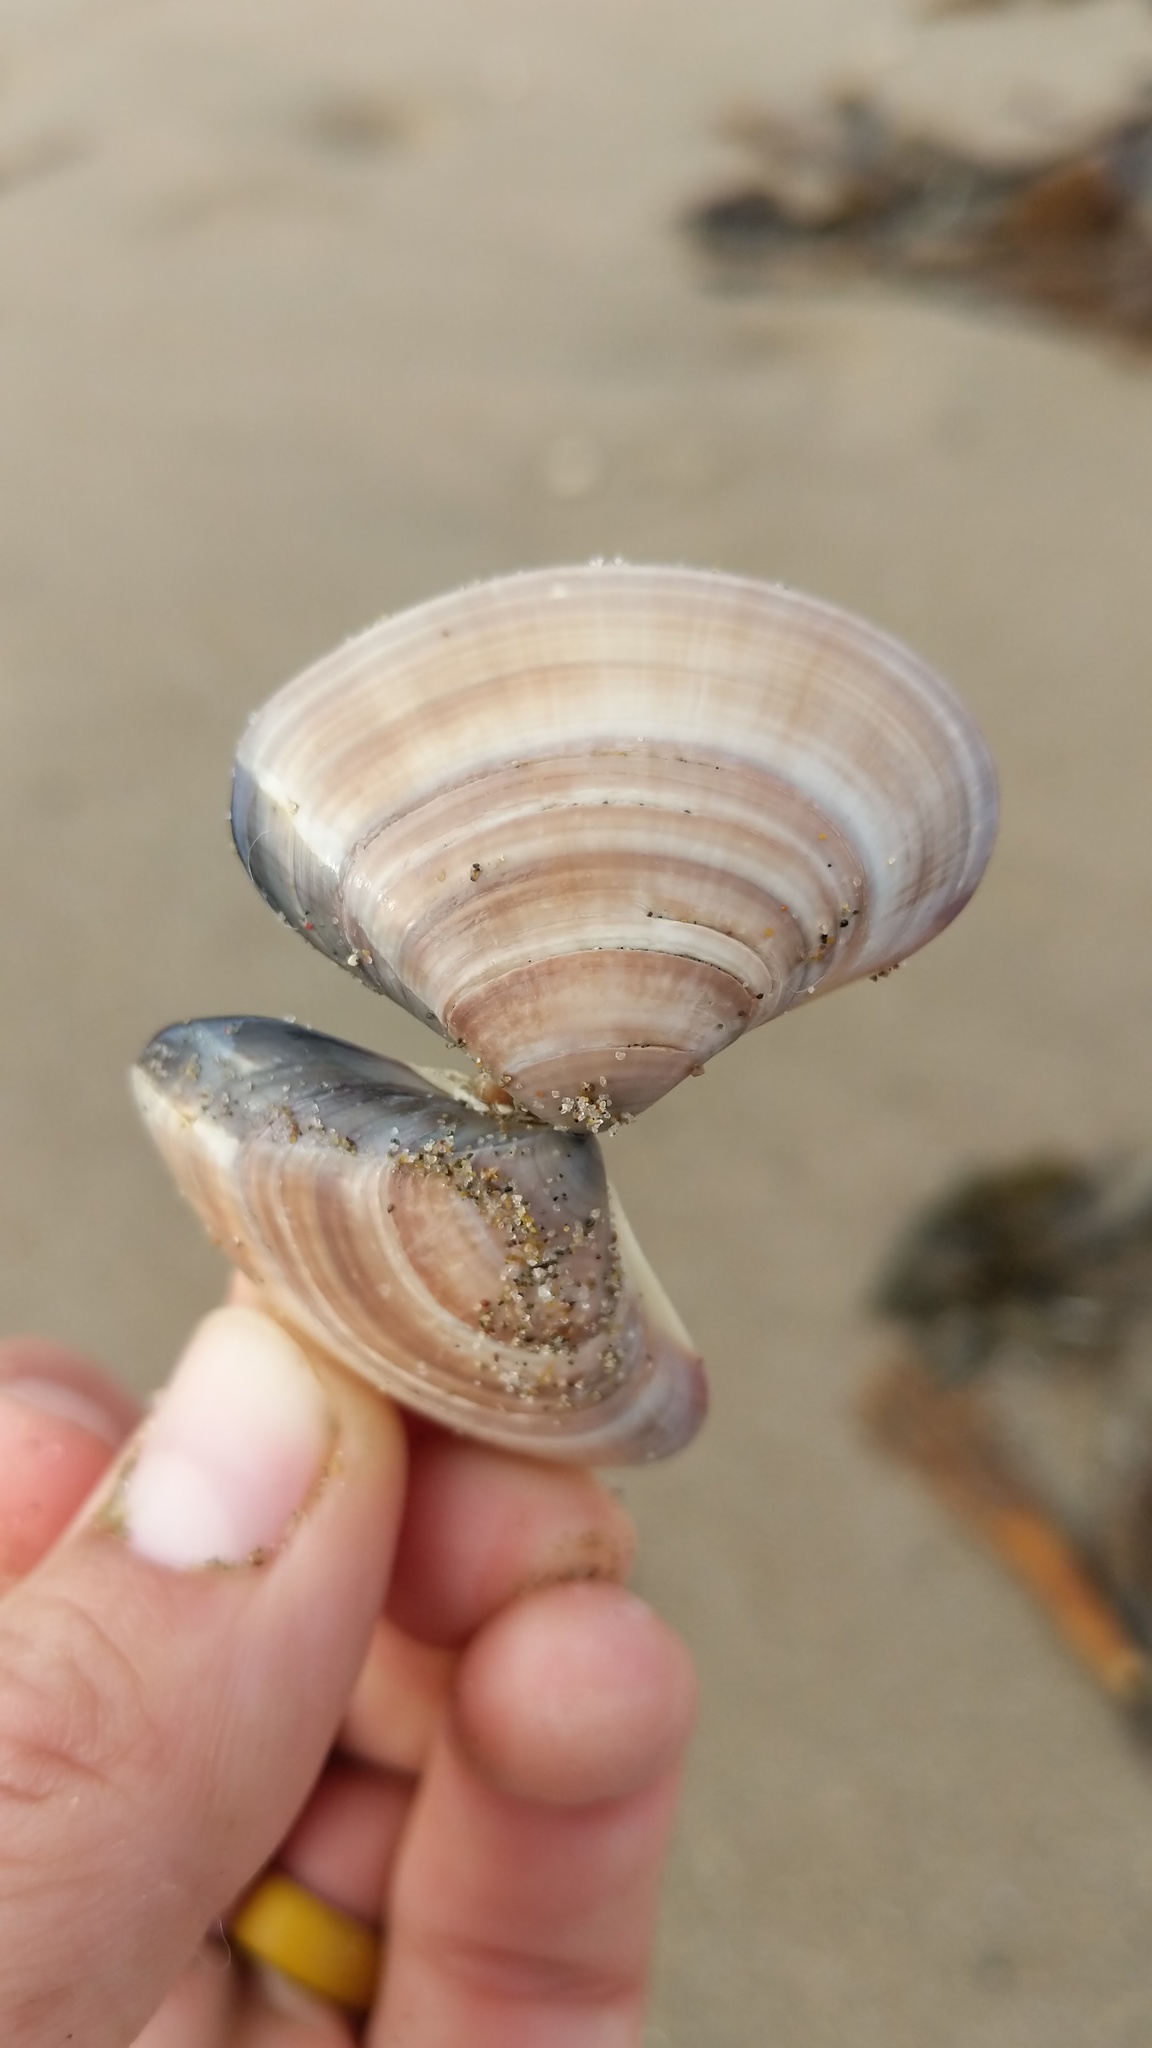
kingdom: Animalia
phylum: Mollusca
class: Bivalvia
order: Venerida
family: Veneridae
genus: Tivela
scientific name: Tivela stultorum
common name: Pismo clam
